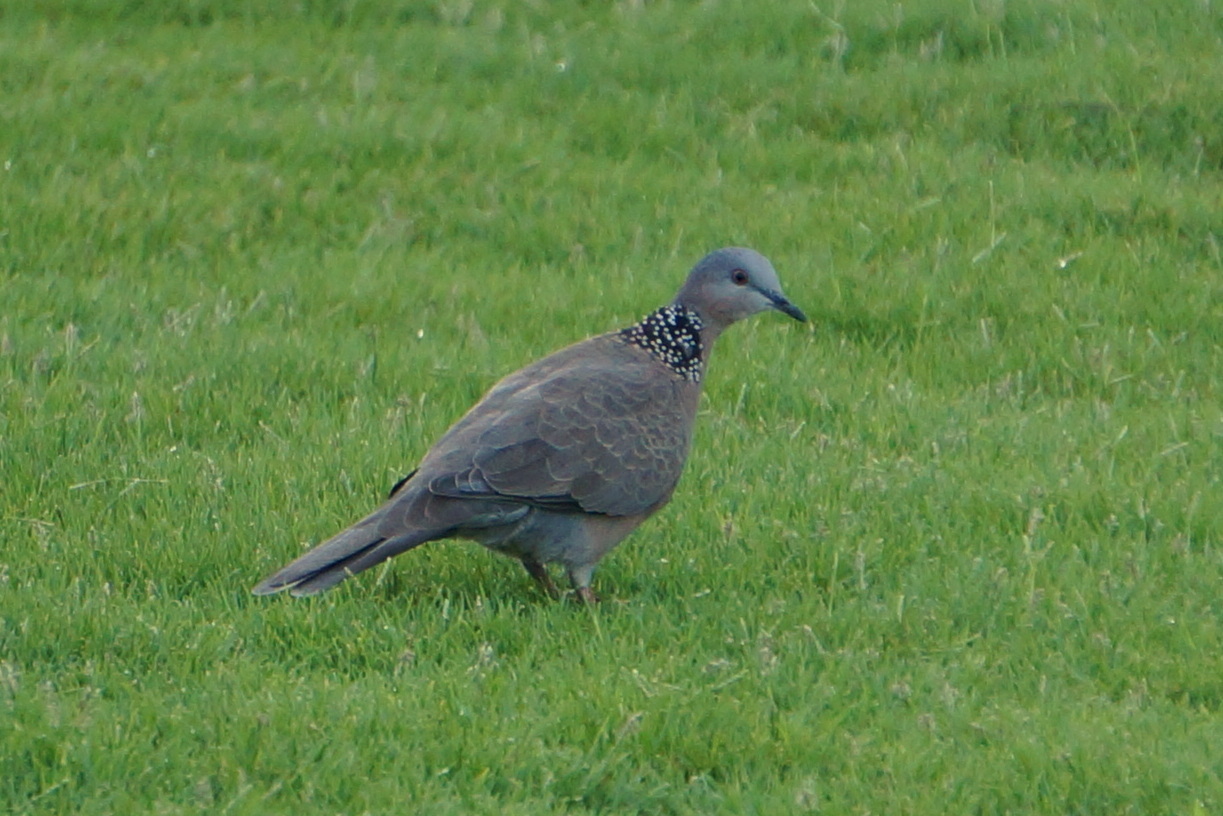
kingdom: Animalia
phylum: Chordata
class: Aves
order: Columbiformes
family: Columbidae
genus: Spilopelia
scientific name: Spilopelia chinensis
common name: Spotted dove
